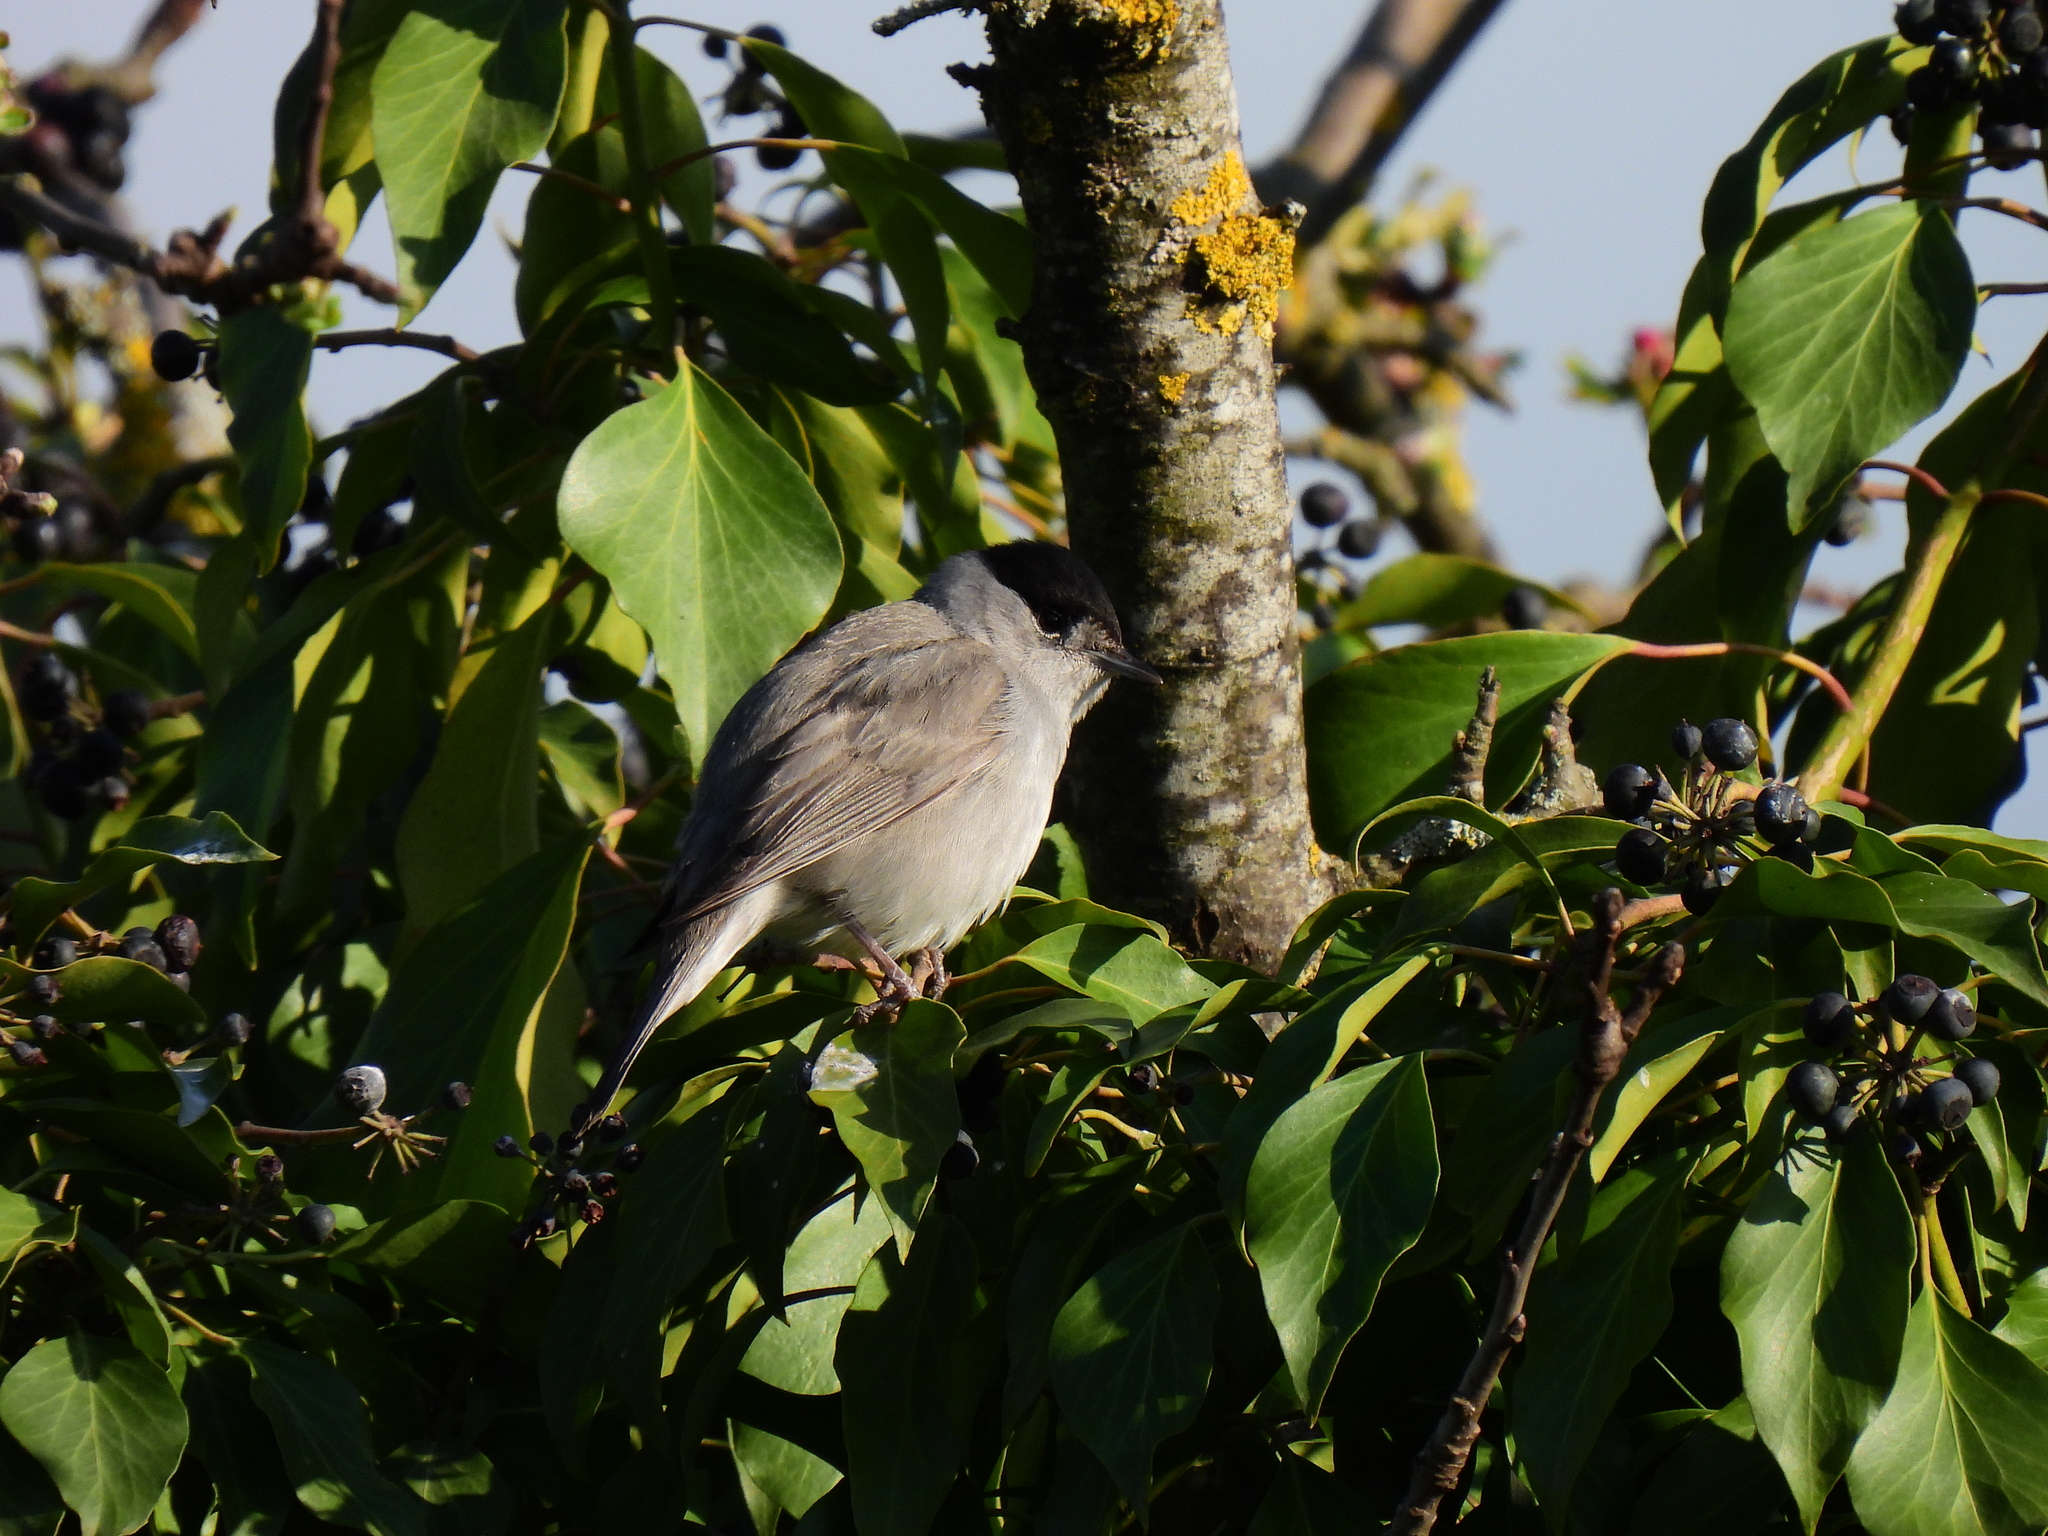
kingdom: Animalia
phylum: Chordata
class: Aves
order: Passeriformes
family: Sylviidae
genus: Sylvia
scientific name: Sylvia atricapilla
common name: Eurasian blackcap
